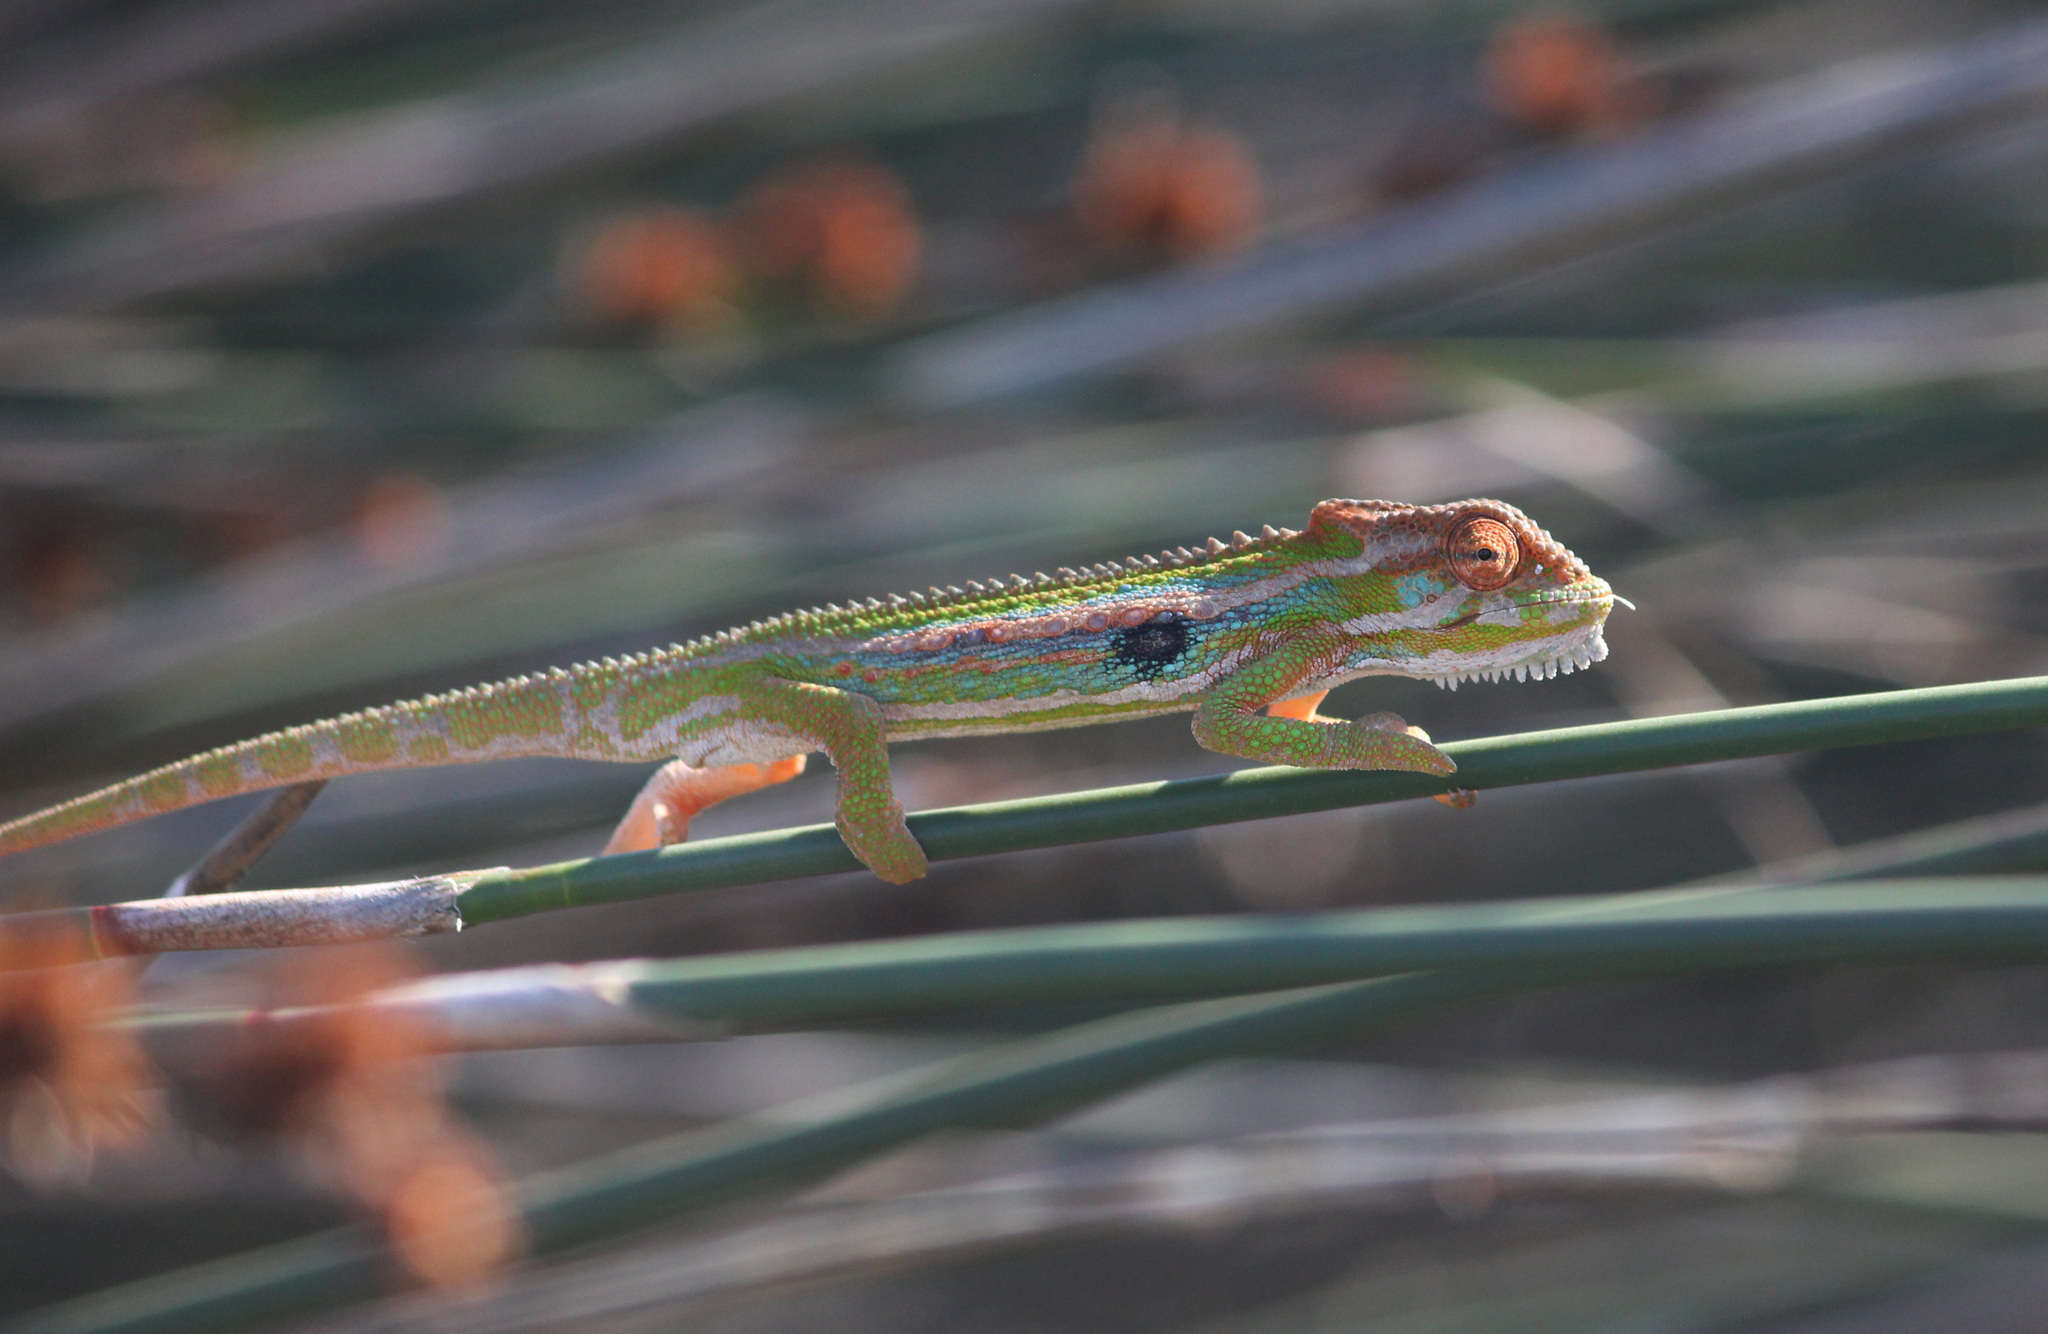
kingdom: Animalia
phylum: Chordata
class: Squamata
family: Chamaeleonidae
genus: Bradypodion
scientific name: Bradypodion pumilum
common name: Cape dwarf chameleon
